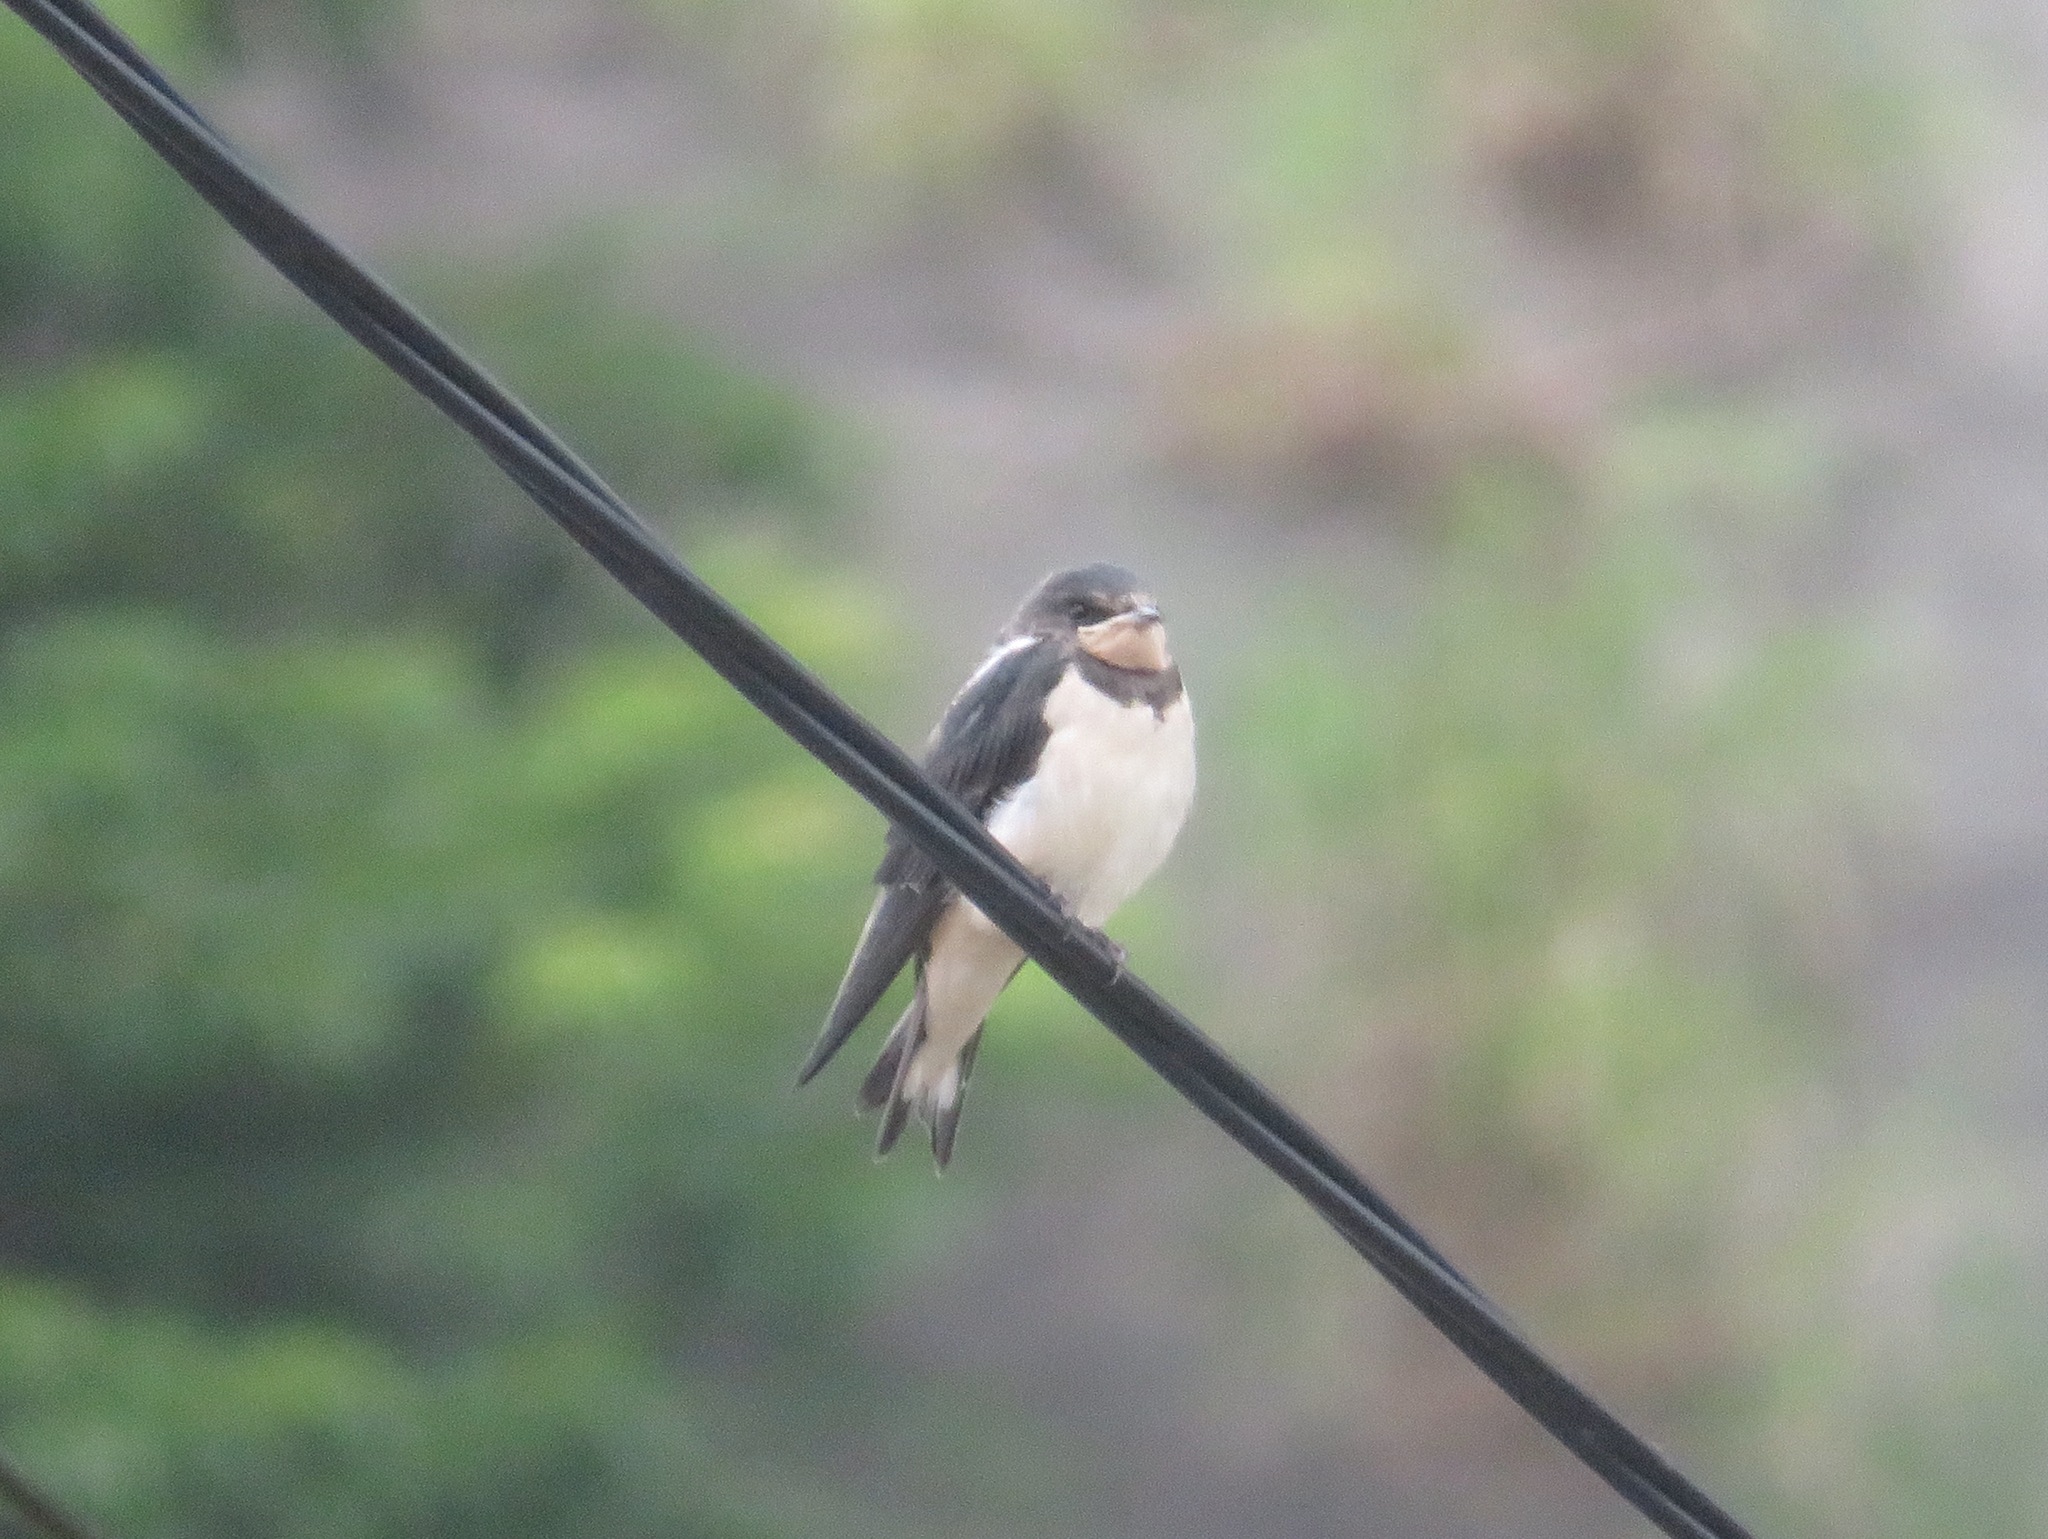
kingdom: Animalia
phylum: Chordata
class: Aves
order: Passeriformes
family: Hirundinidae
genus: Hirundo
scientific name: Hirundo rustica
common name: Barn swallow
